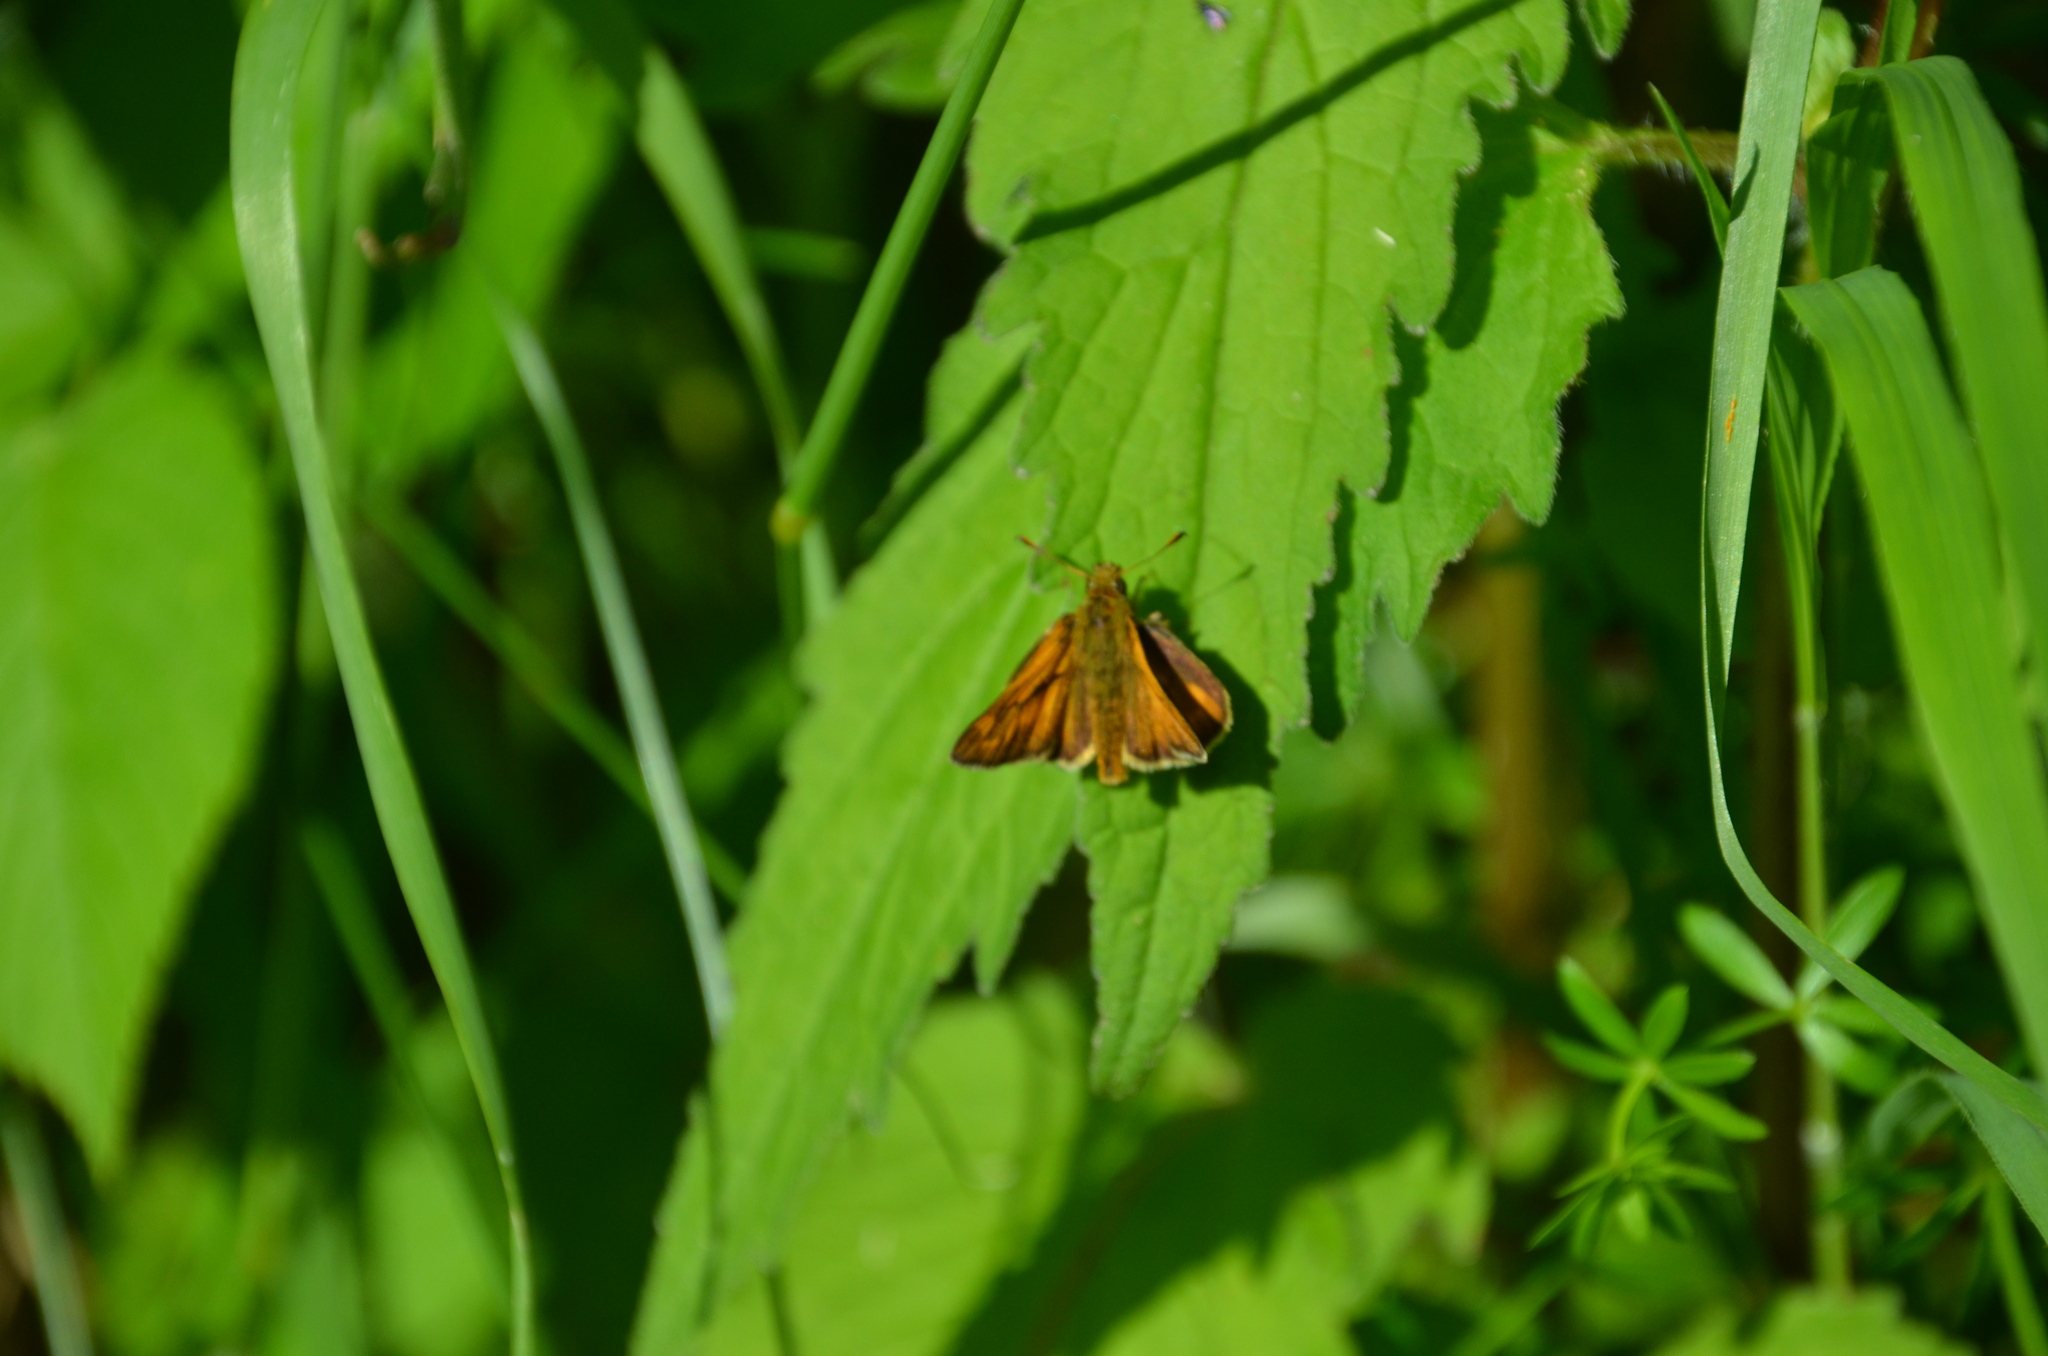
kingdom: Animalia
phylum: Arthropoda
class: Insecta
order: Lepidoptera
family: Hesperiidae
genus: Ochlodes
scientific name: Ochlodes venata
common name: Large skipper
